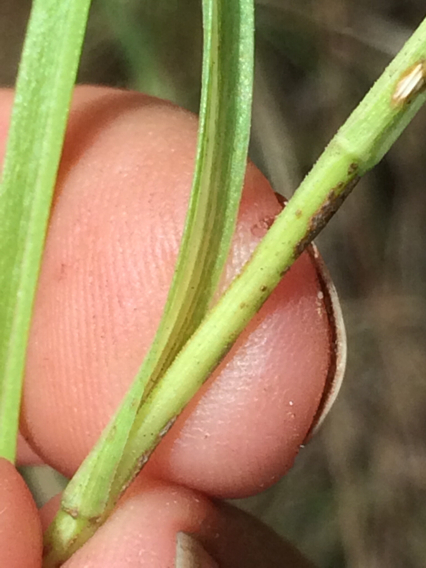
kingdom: Plantae
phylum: Tracheophyta
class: Magnoliopsida
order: Asterales
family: Asteraceae
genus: Eurybia
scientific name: Eurybia hemispherica
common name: Showy aster
